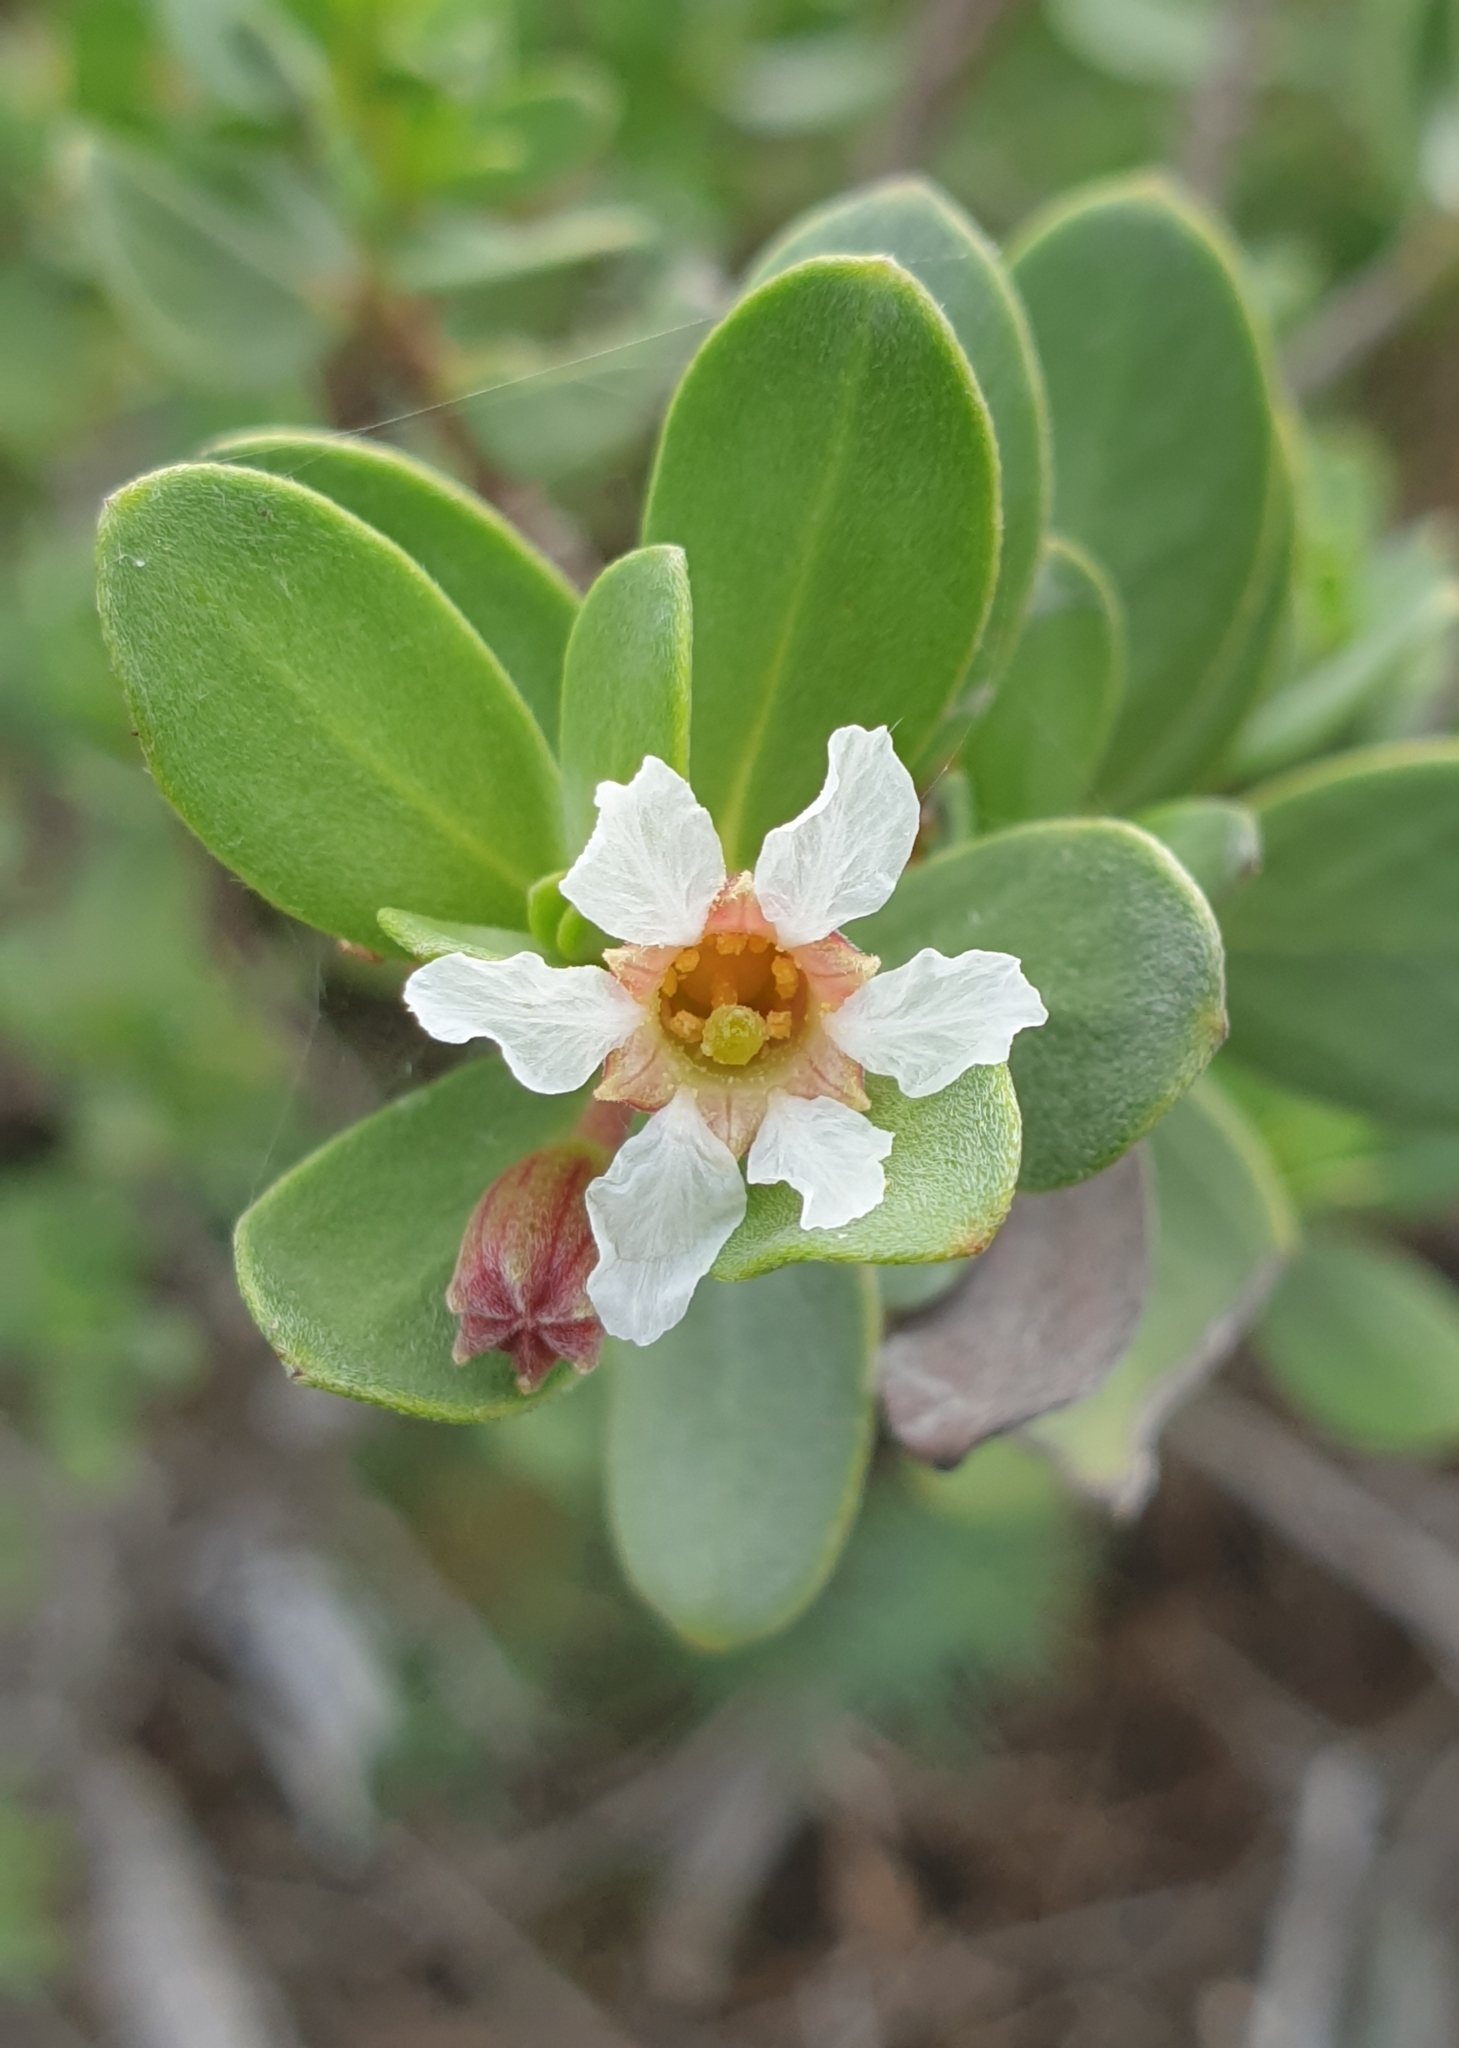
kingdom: Plantae
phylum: Tracheophyta
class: Magnoliopsida
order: Myrtales
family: Lythraceae
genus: Pemphis
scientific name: Pemphis acidula
